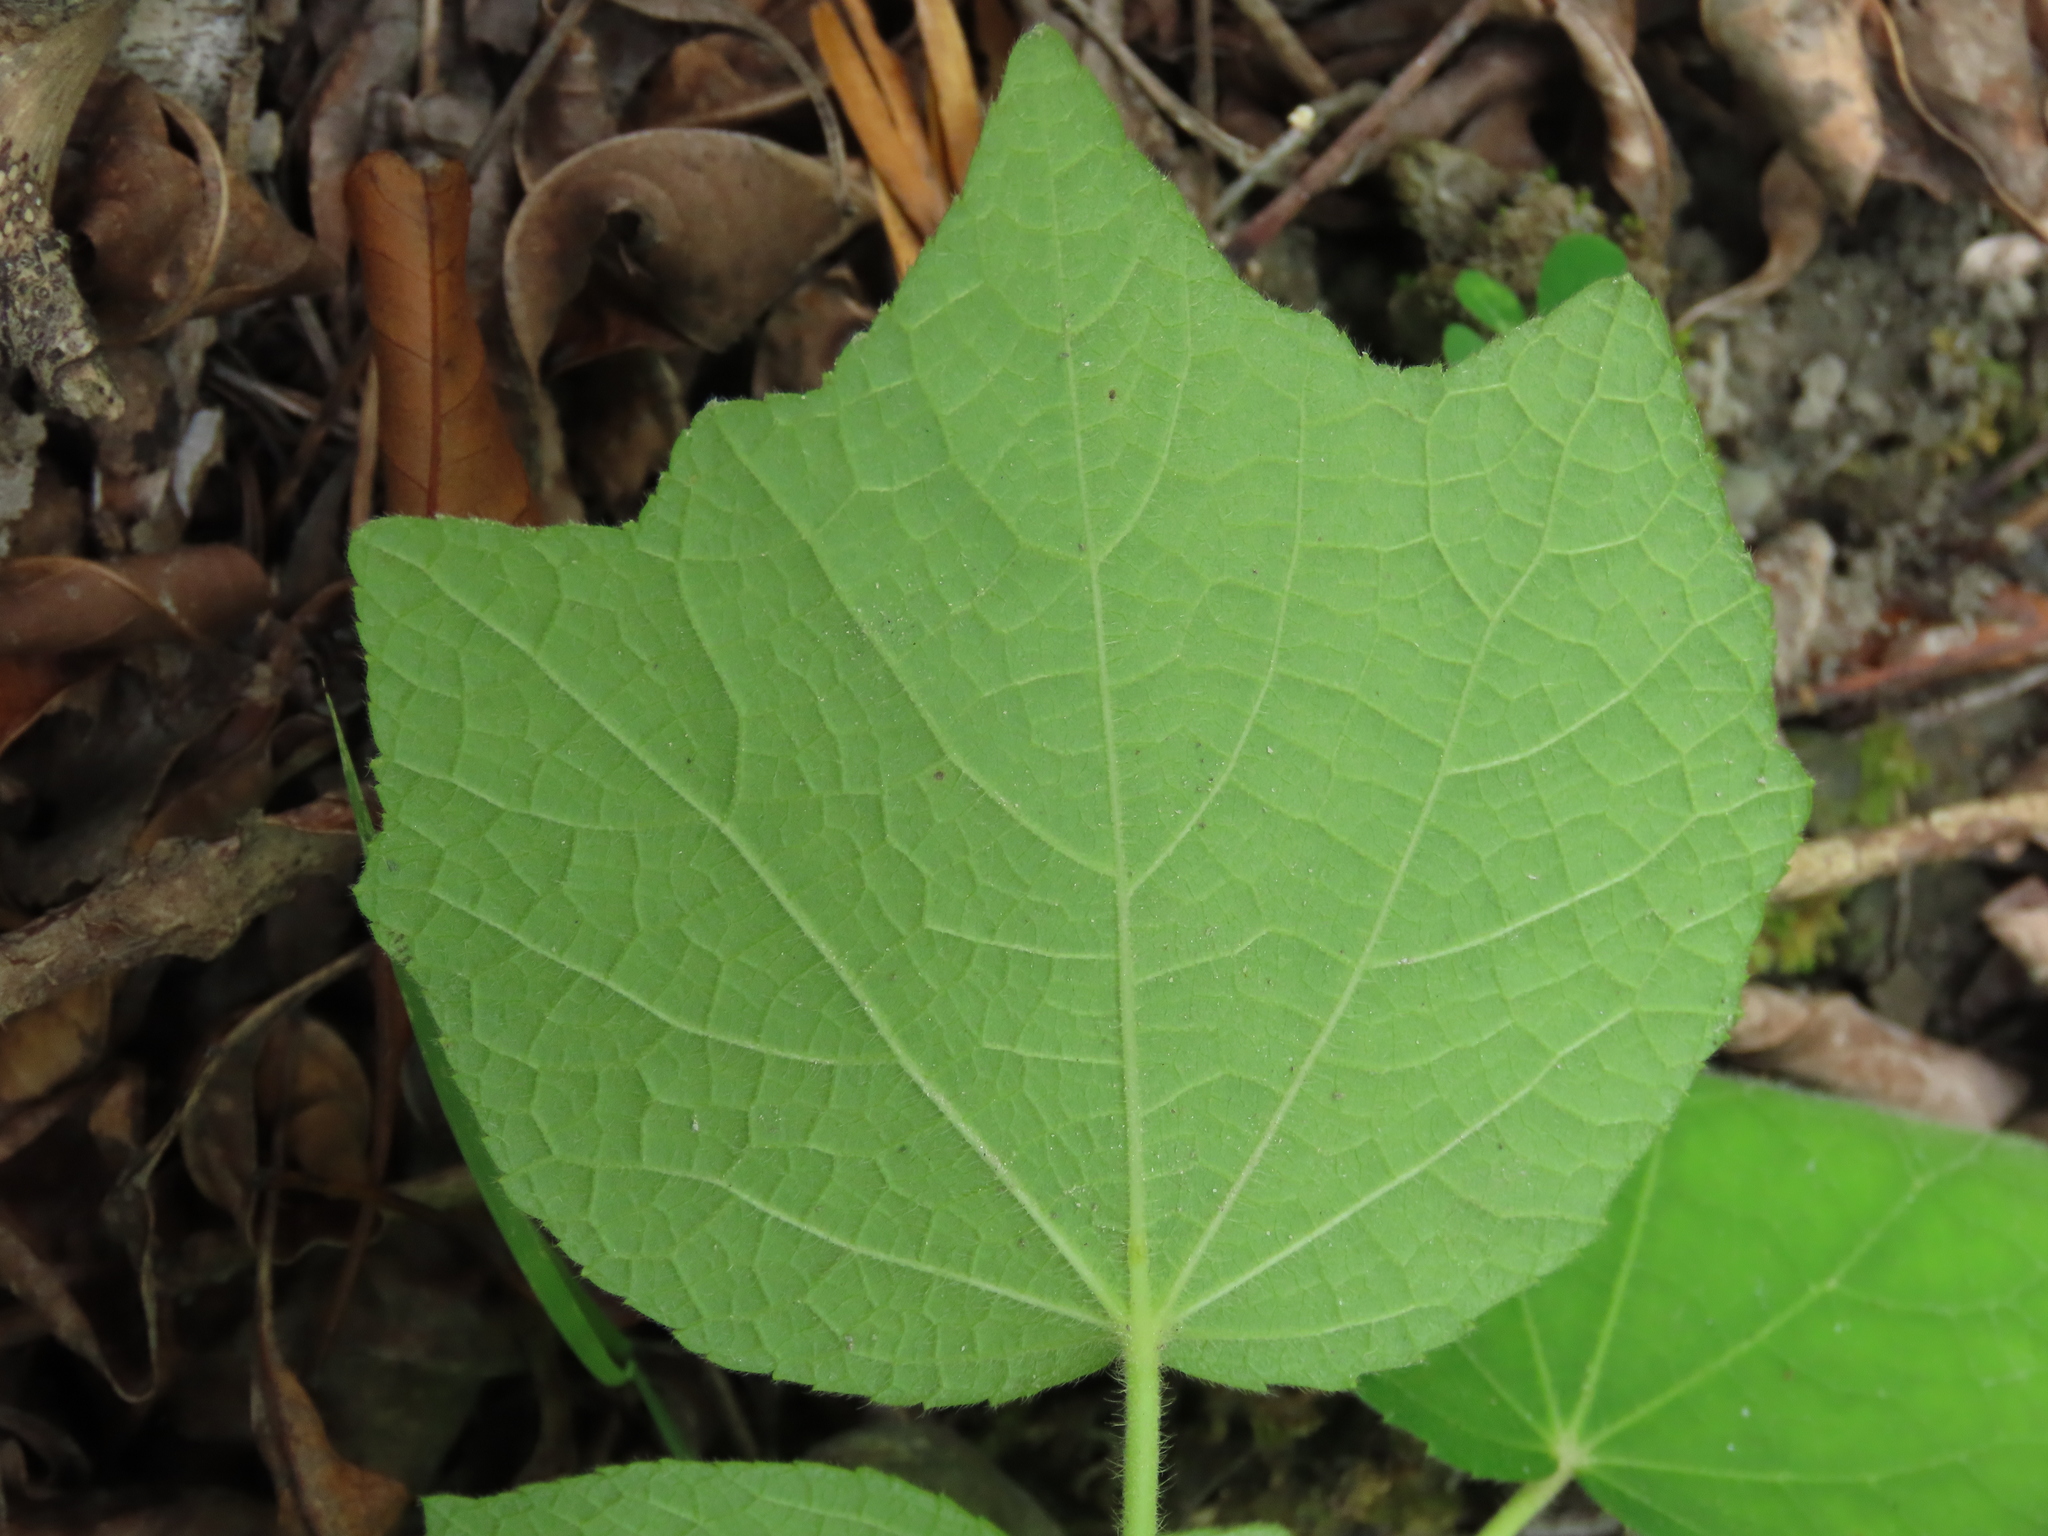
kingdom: Plantae
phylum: Tracheophyta
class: Magnoliopsida
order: Malvales
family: Malvaceae
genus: Urena
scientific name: Urena lobata
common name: Caesarweed
